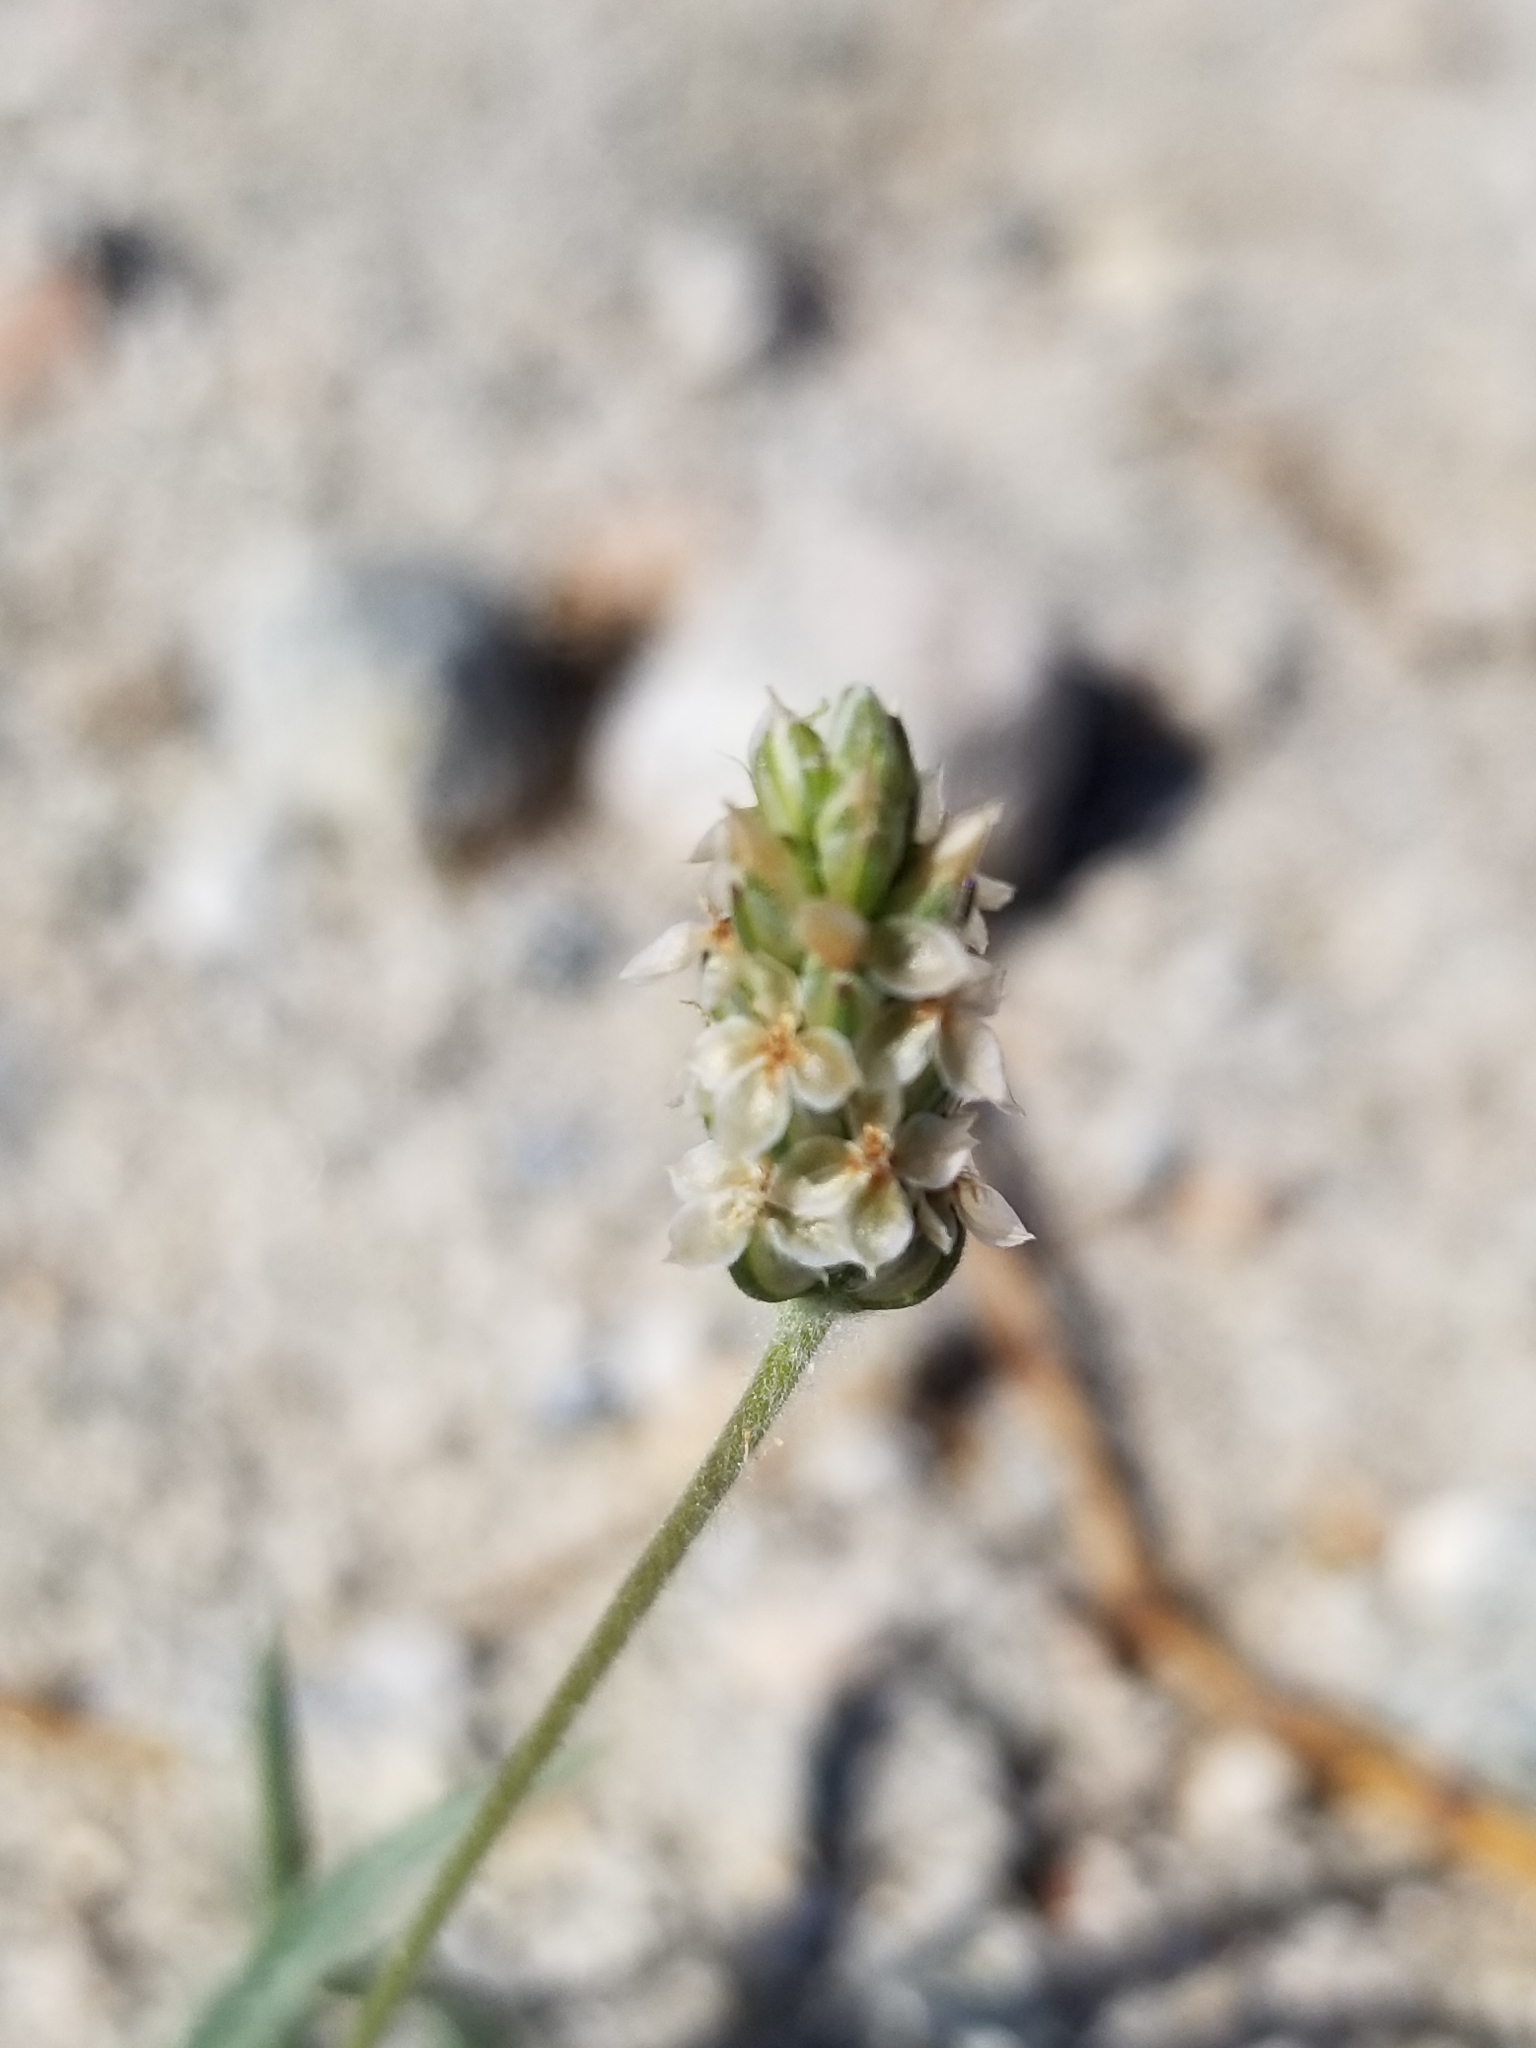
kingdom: Plantae
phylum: Tracheophyta
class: Magnoliopsida
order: Lamiales
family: Plantaginaceae
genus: Plantago
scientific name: Plantago ovata
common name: Blond plantain
